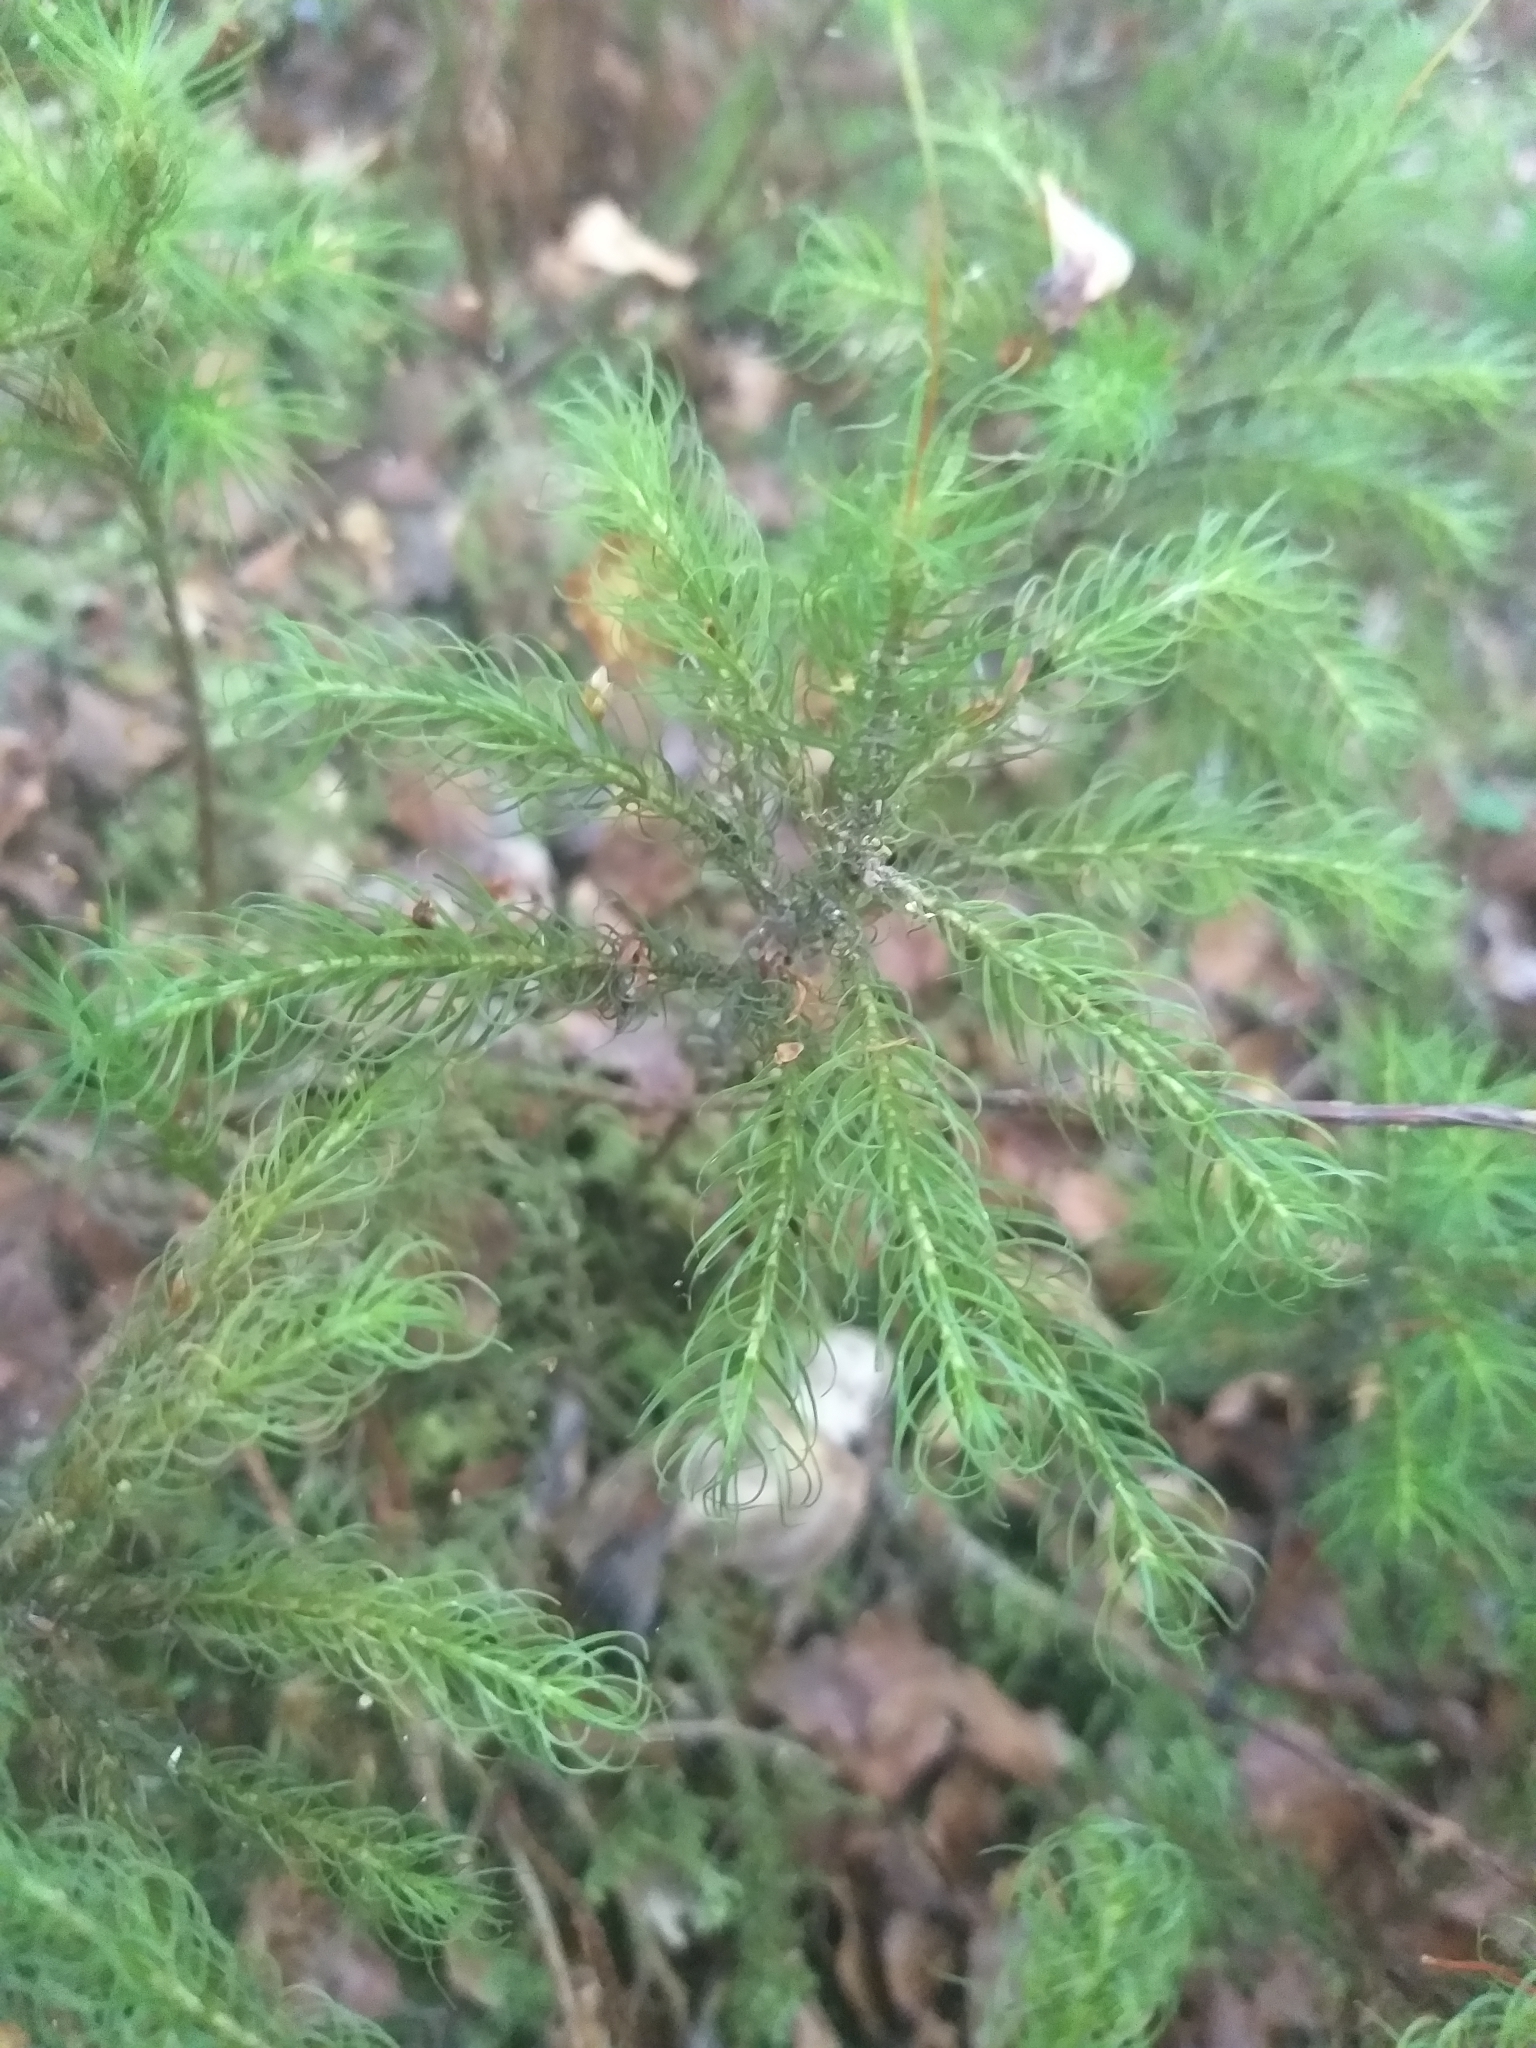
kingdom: Plantae
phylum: Bryophyta
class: Polytrichopsida
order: Polytrichales
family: Polytrichaceae
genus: Dendroligotrichum
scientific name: Dendroligotrichum tongariroense
